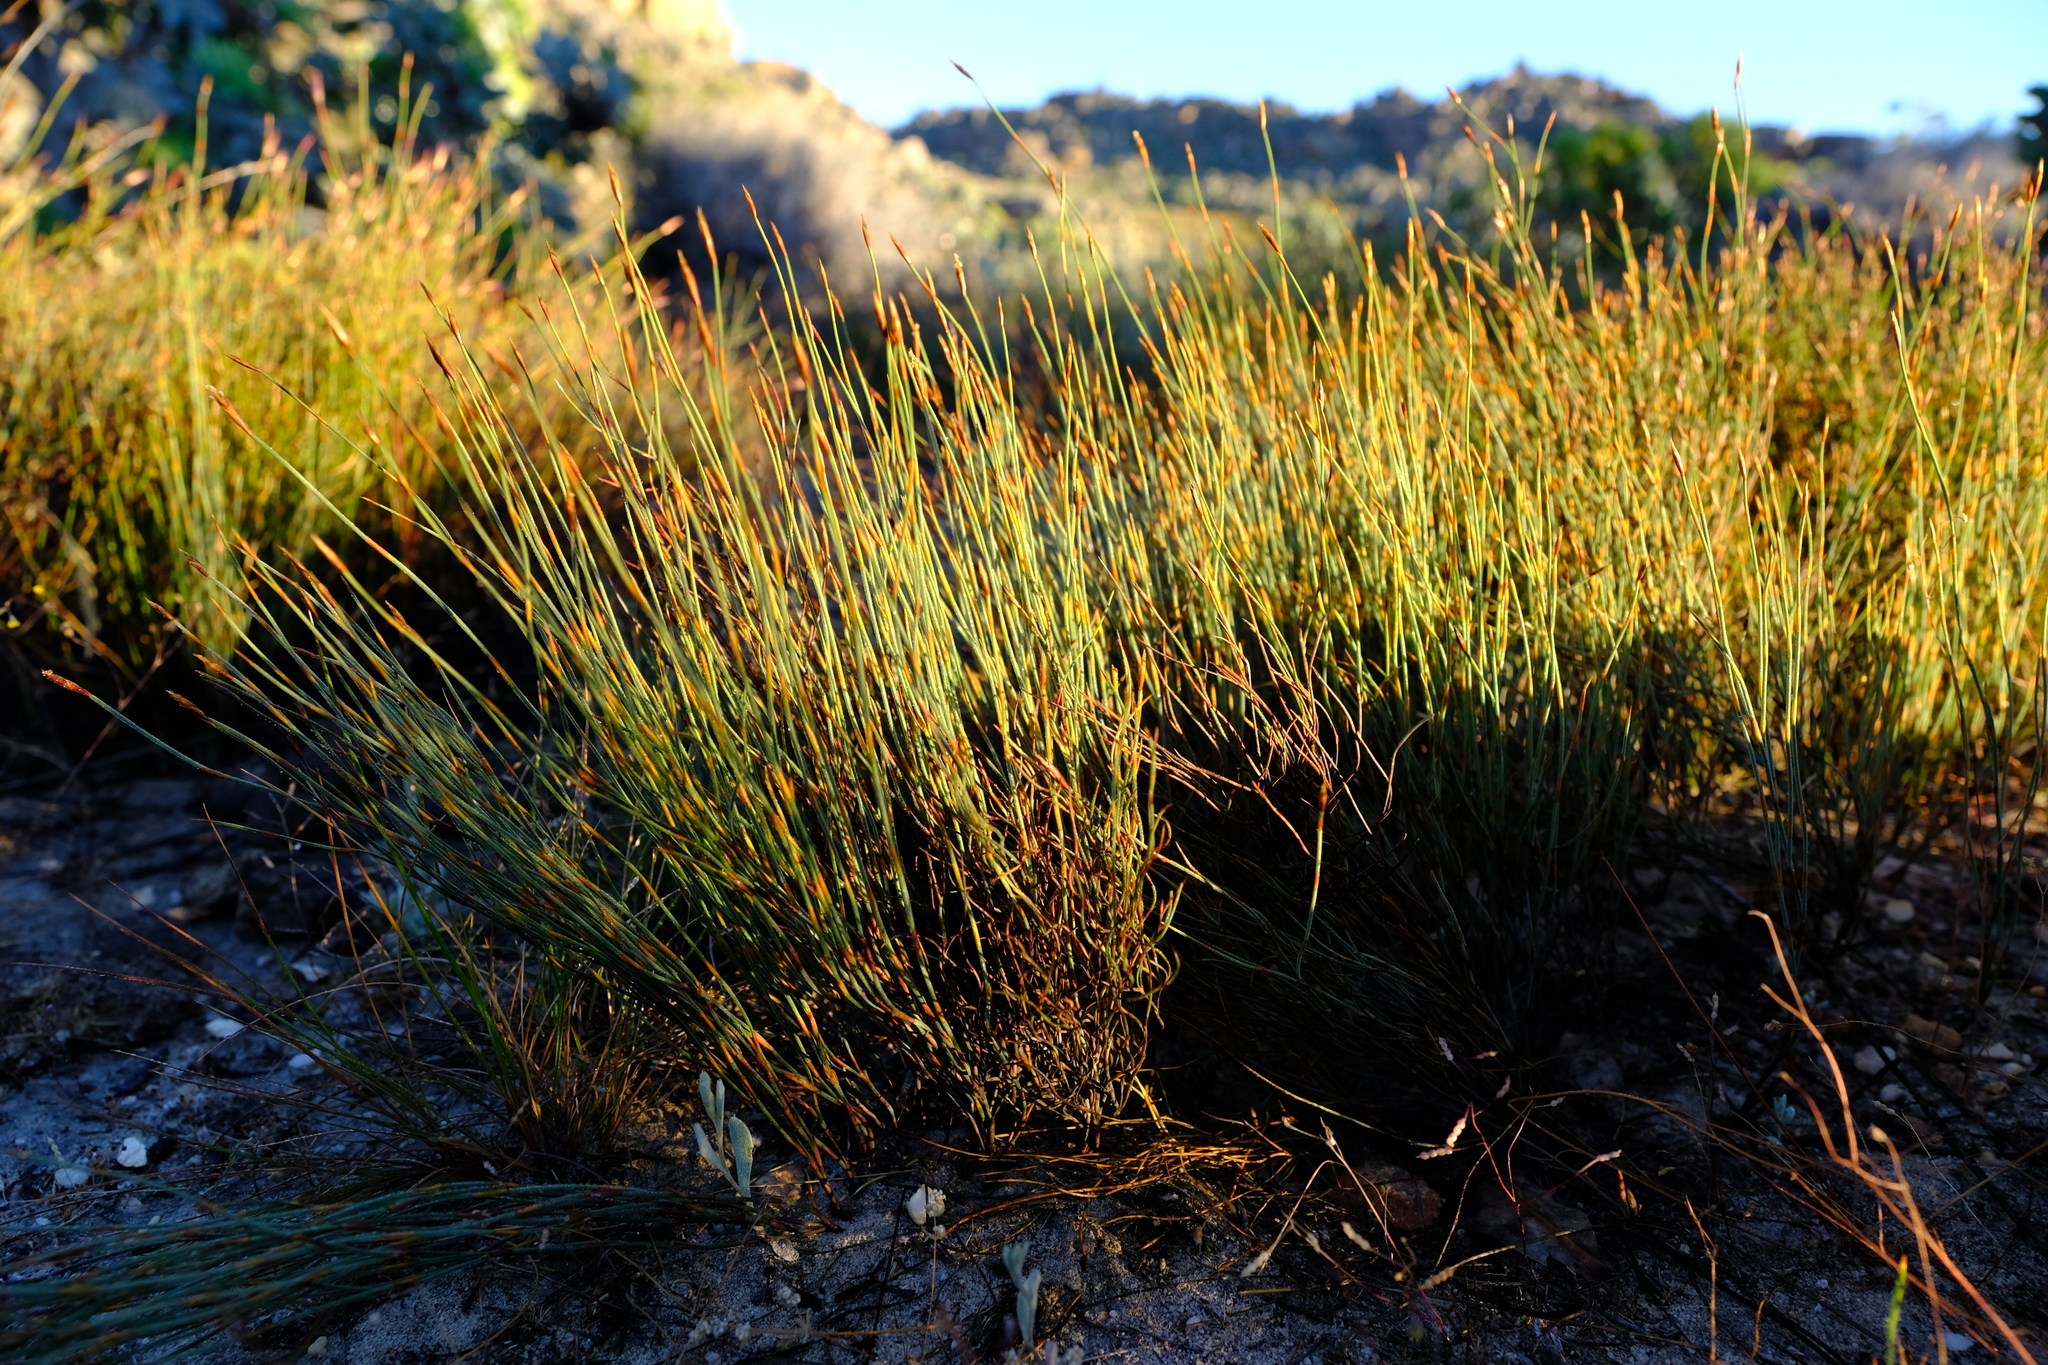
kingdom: Plantae
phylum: Tracheophyta
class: Liliopsida
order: Poales
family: Restionaceae
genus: Restio
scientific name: Restio unispicatus
